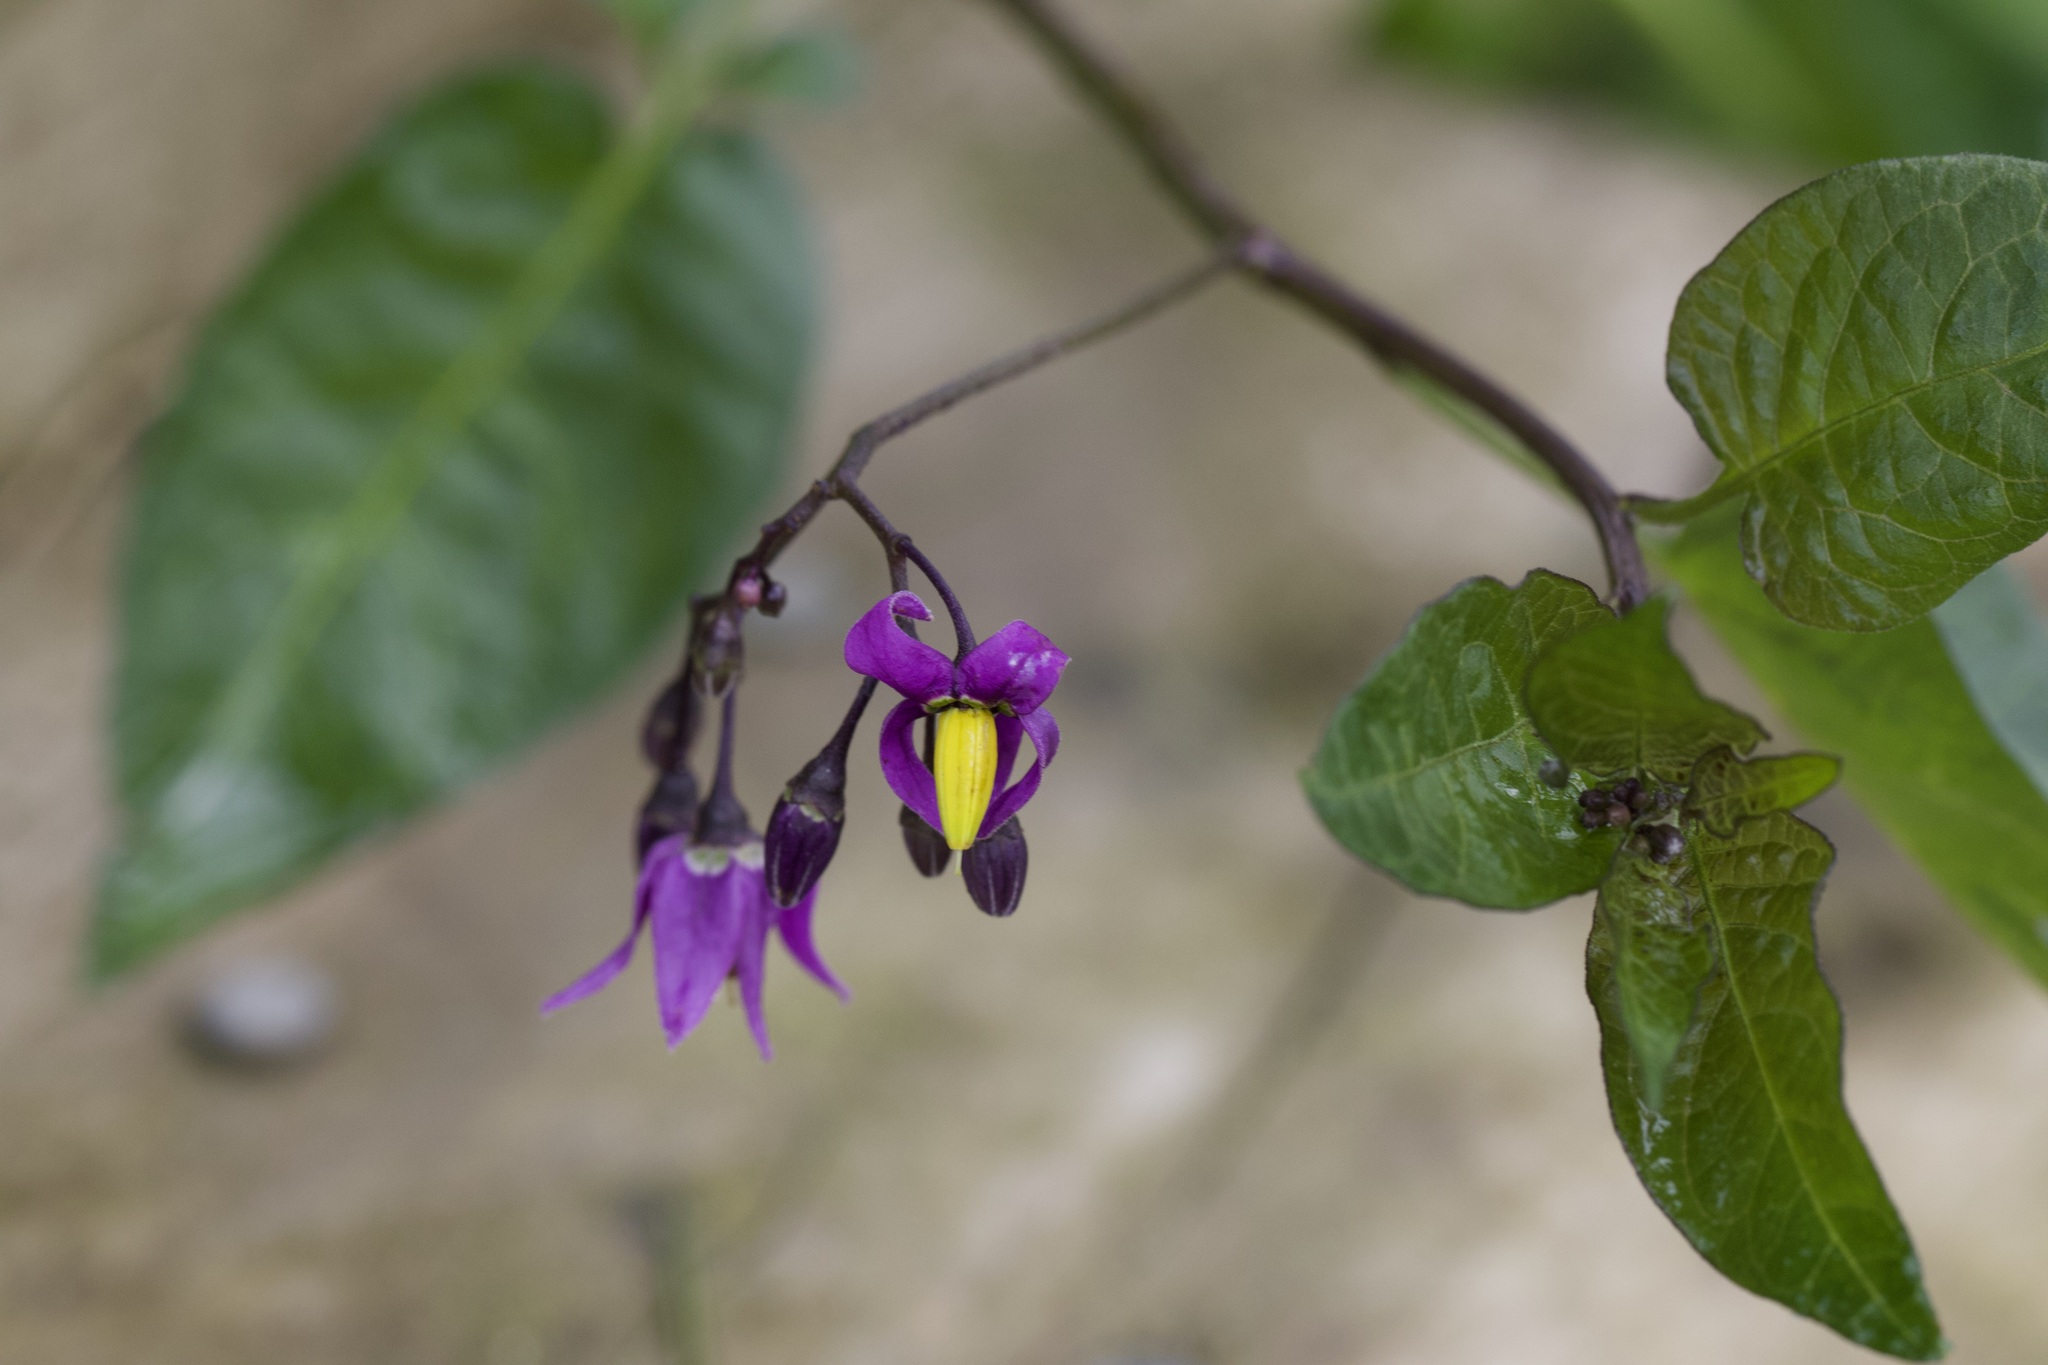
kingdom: Plantae
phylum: Tracheophyta
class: Magnoliopsida
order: Solanales
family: Solanaceae
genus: Solanum
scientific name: Solanum dulcamara
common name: Climbing nightshade
